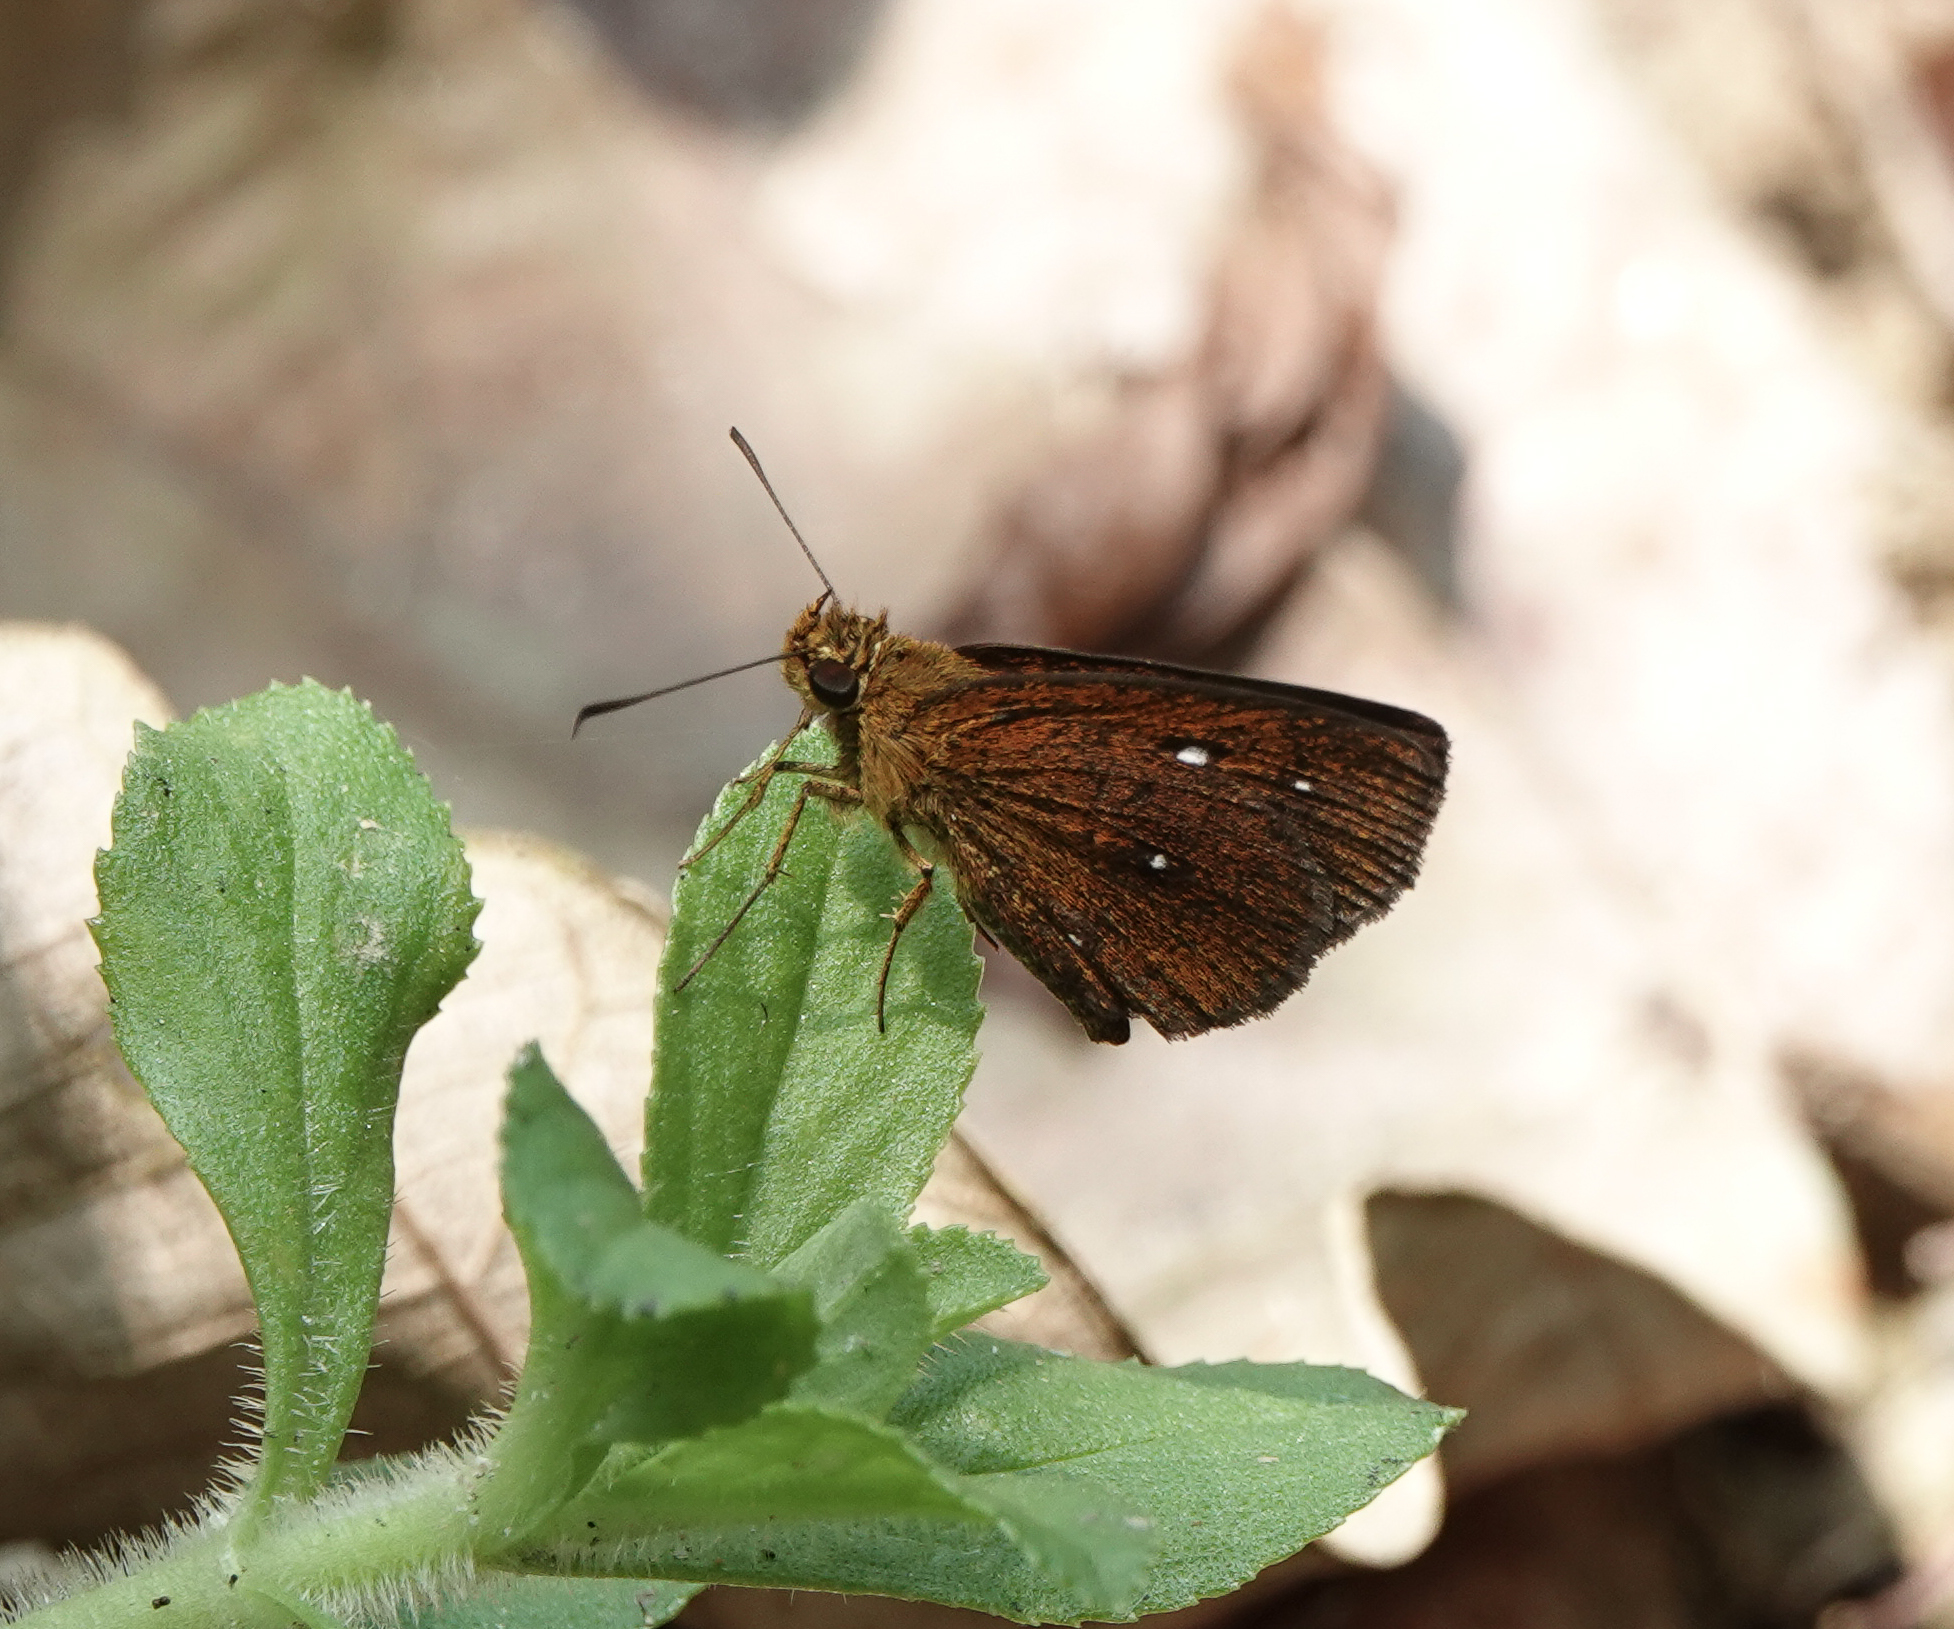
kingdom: Animalia
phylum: Arthropoda
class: Insecta
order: Lepidoptera
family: Hesperiidae
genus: Iambrix
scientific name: Iambrix salsala
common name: Chestnut bob
